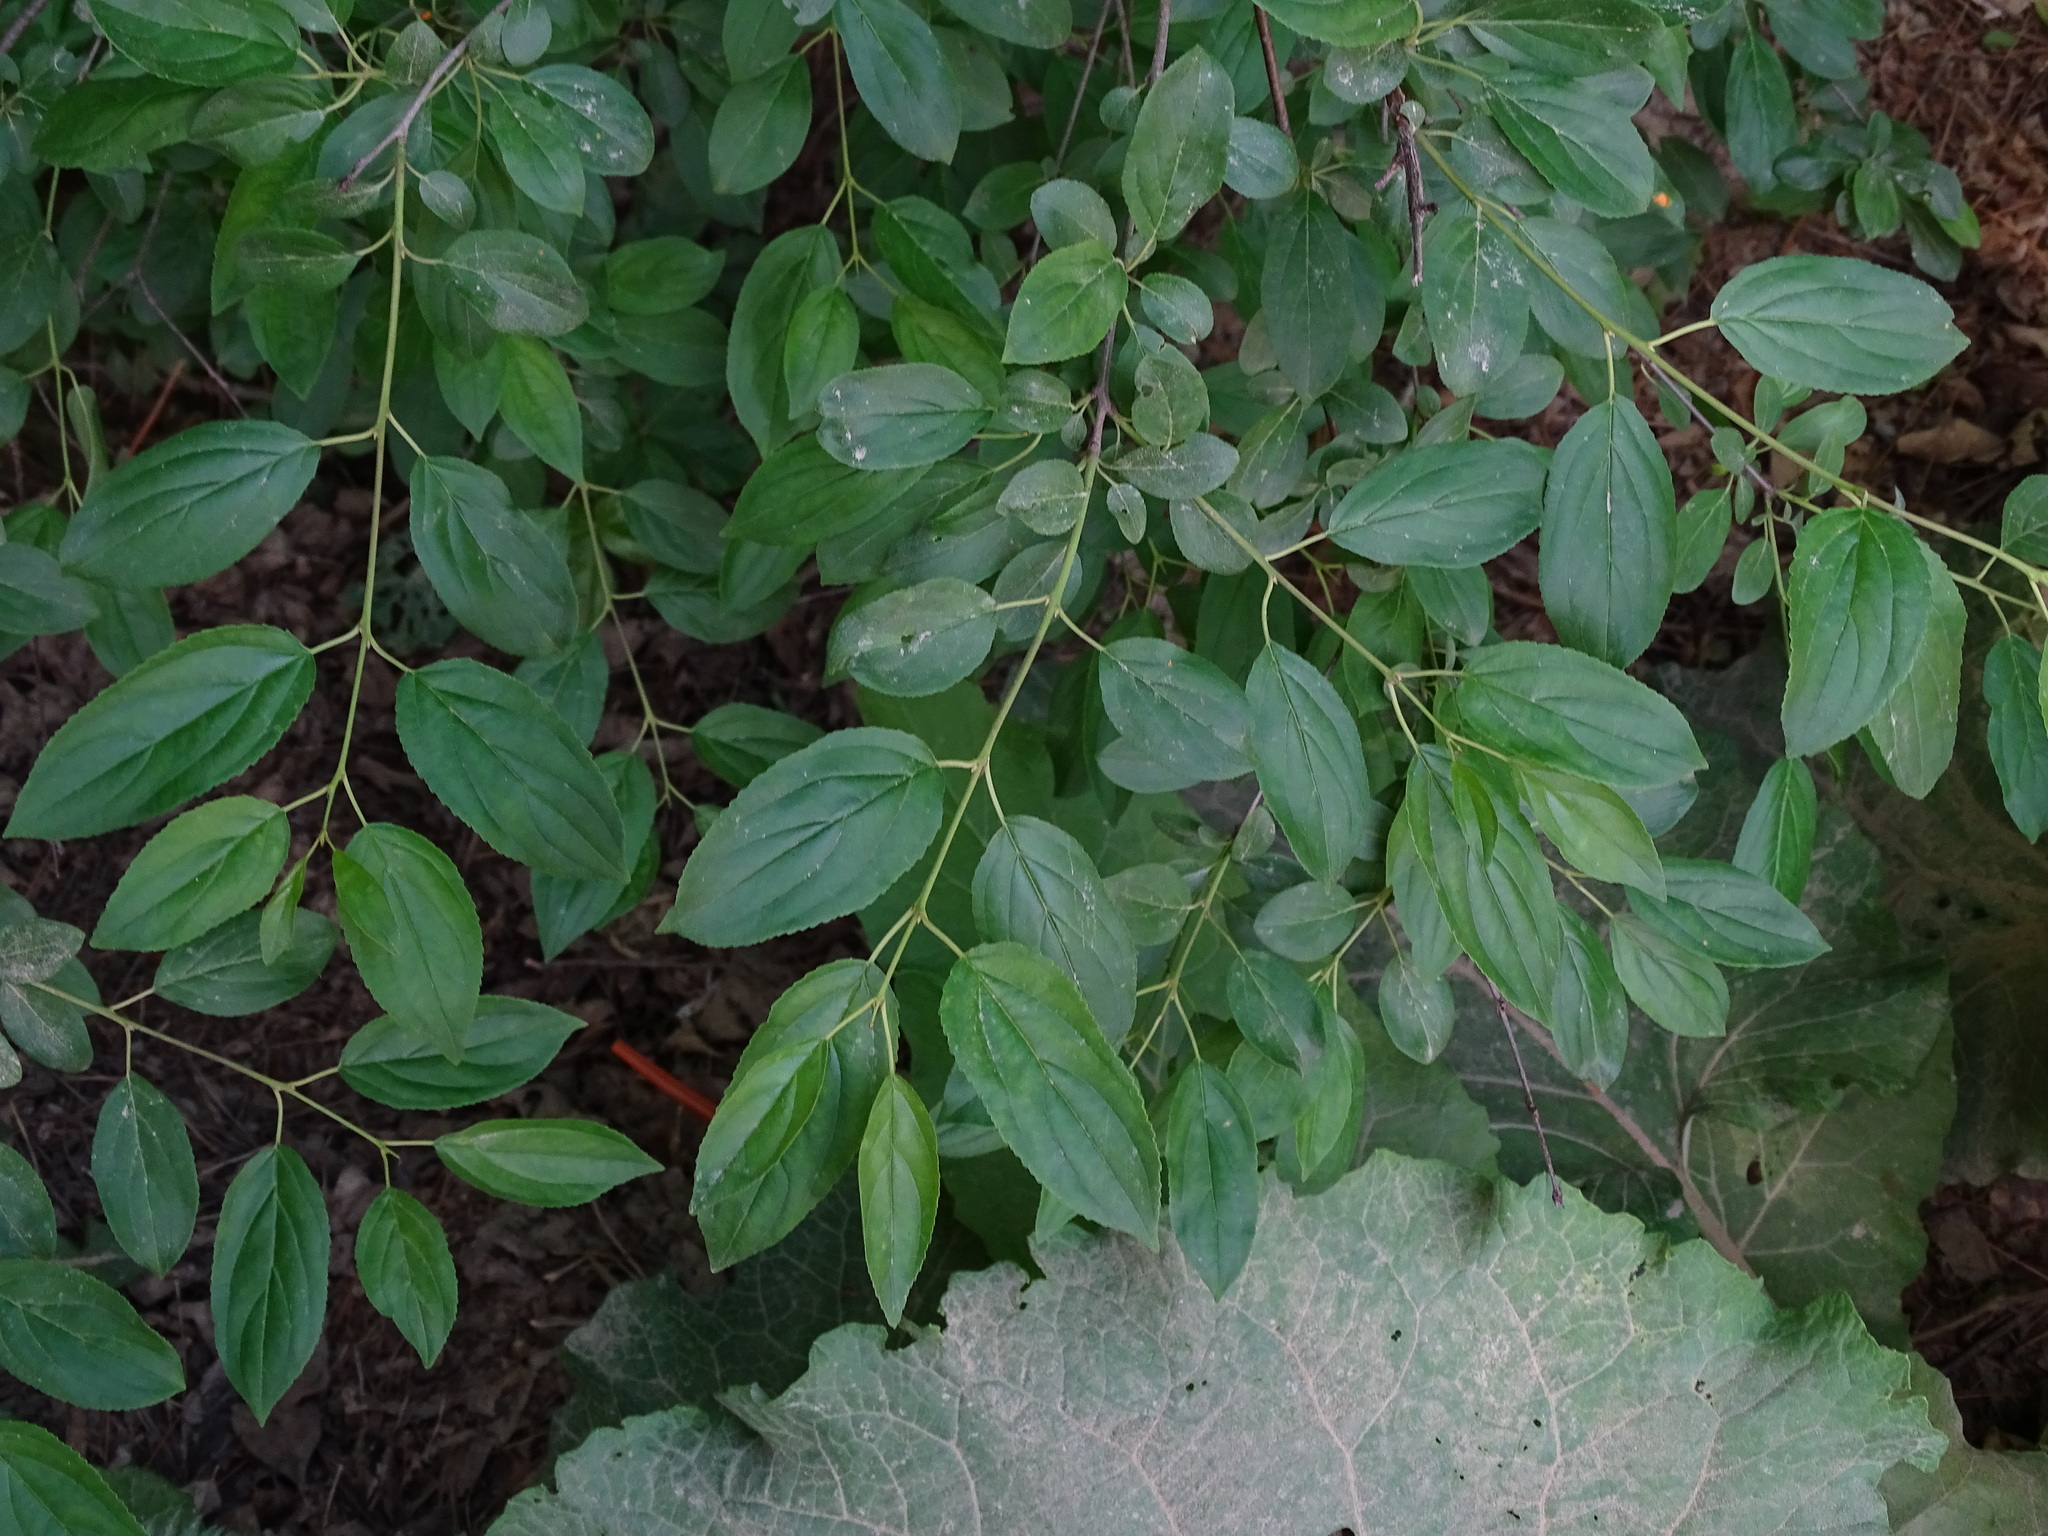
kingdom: Plantae
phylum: Tracheophyta
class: Magnoliopsida
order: Rosales
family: Rhamnaceae
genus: Rhamnus
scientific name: Rhamnus cathartica
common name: Common buckthorn
